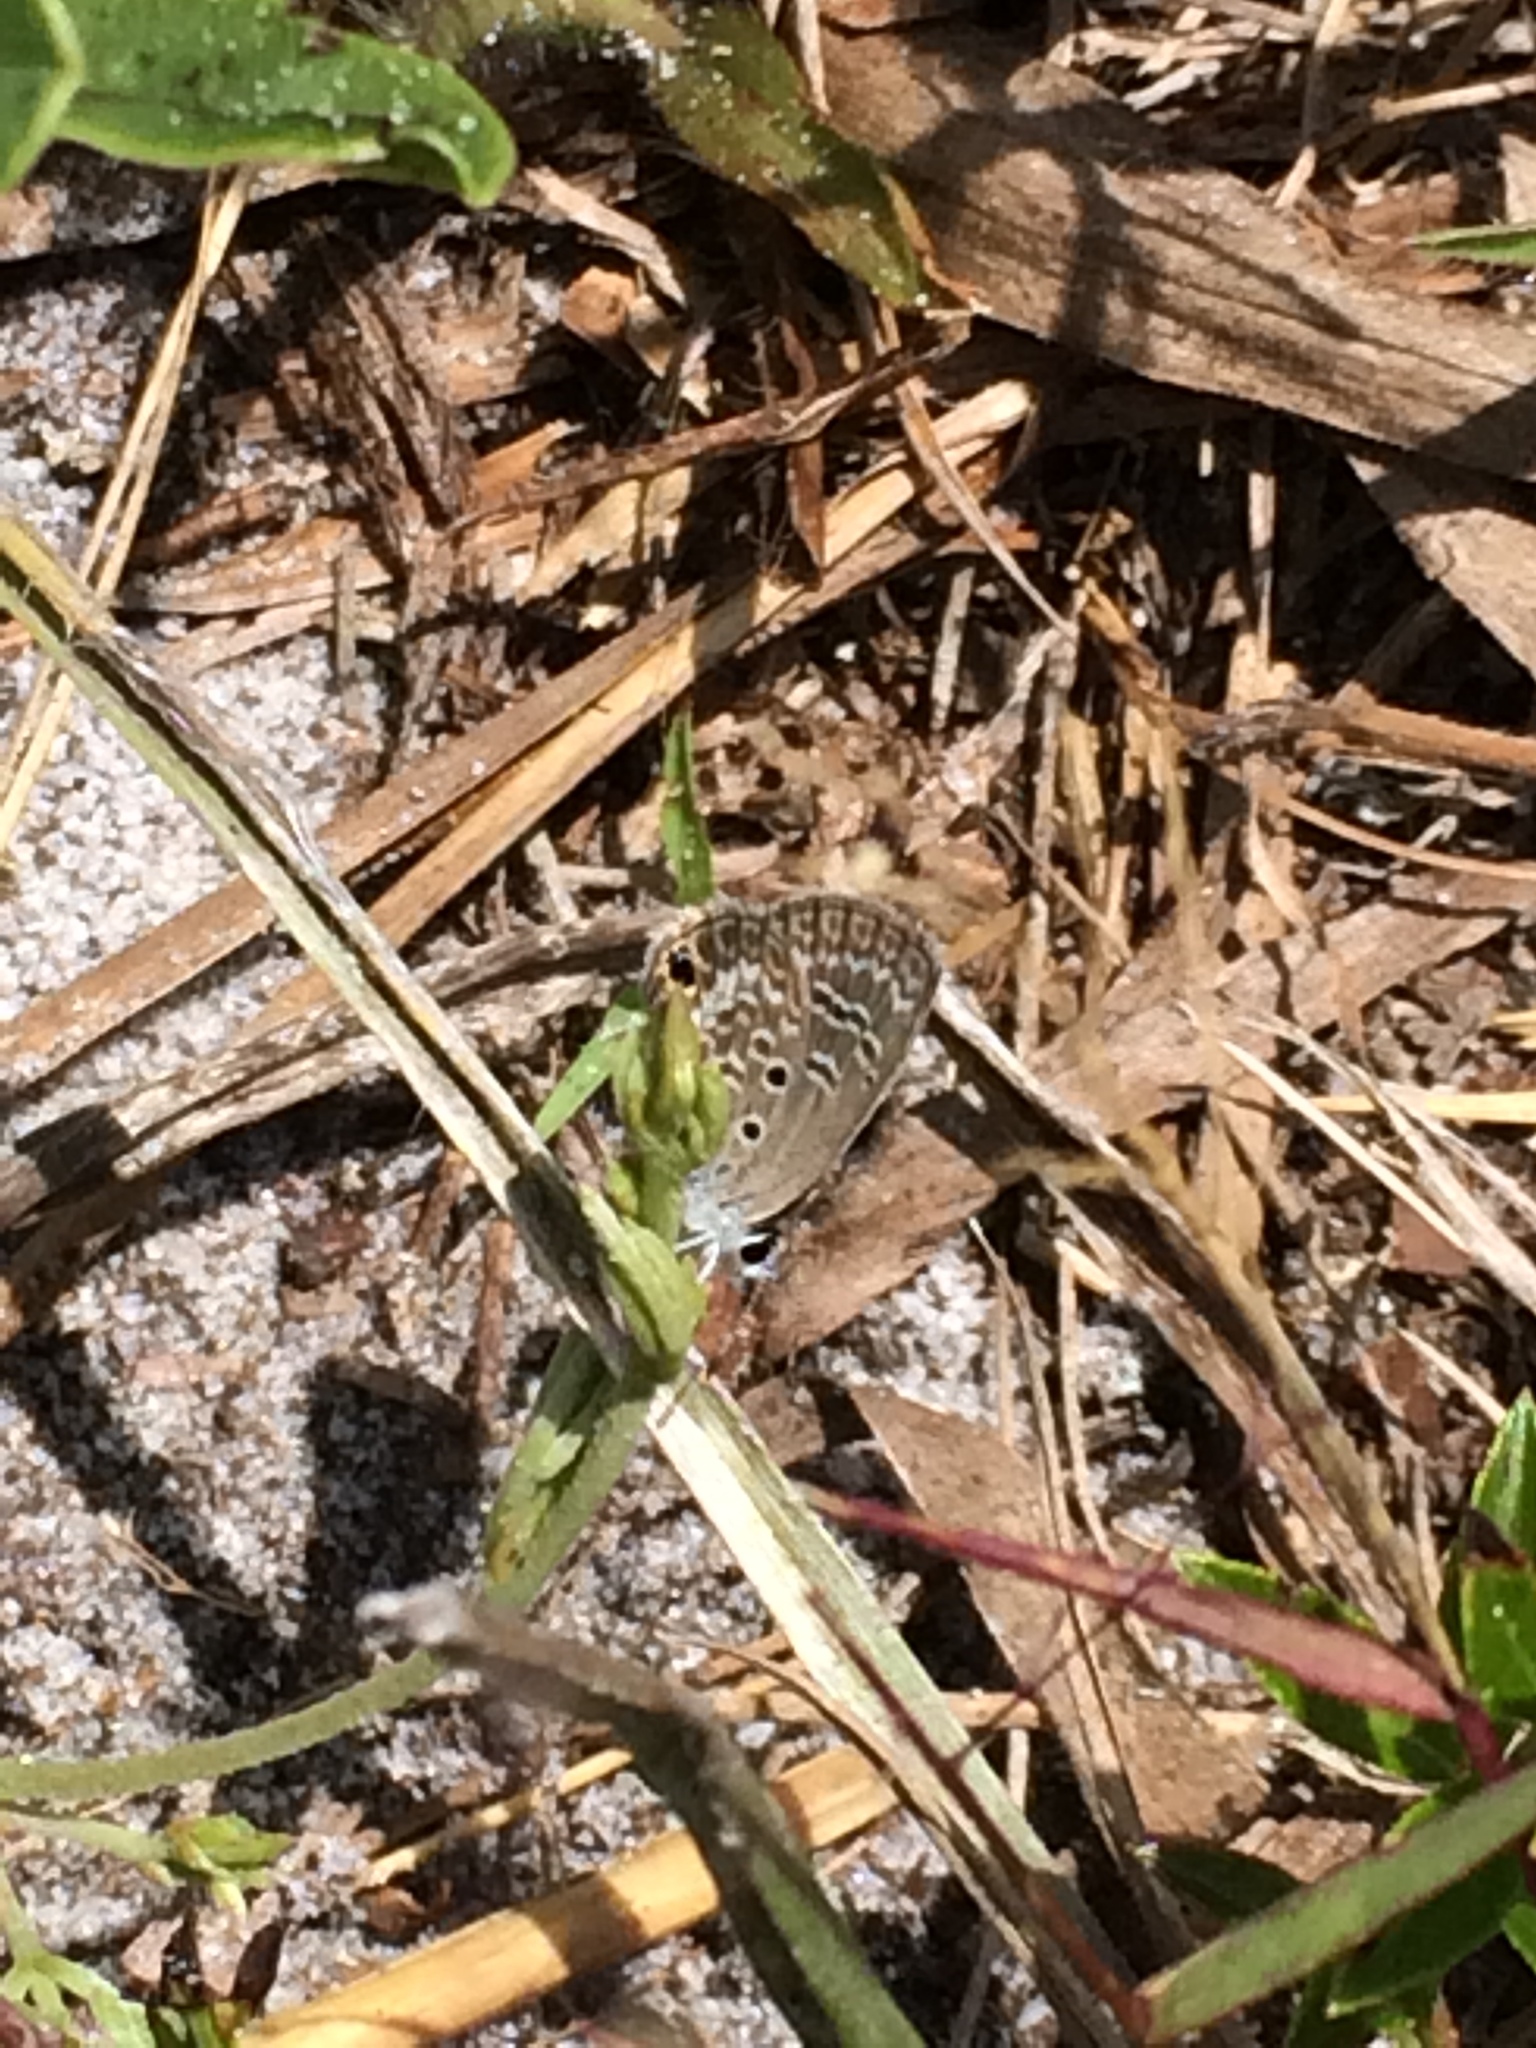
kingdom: Animalia
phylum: Arthropoda
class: Insecta
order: Lepidoptera
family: Lycaenidae
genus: Hemiargus
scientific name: Hemiargus ceraunus
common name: Ceraunus blue
